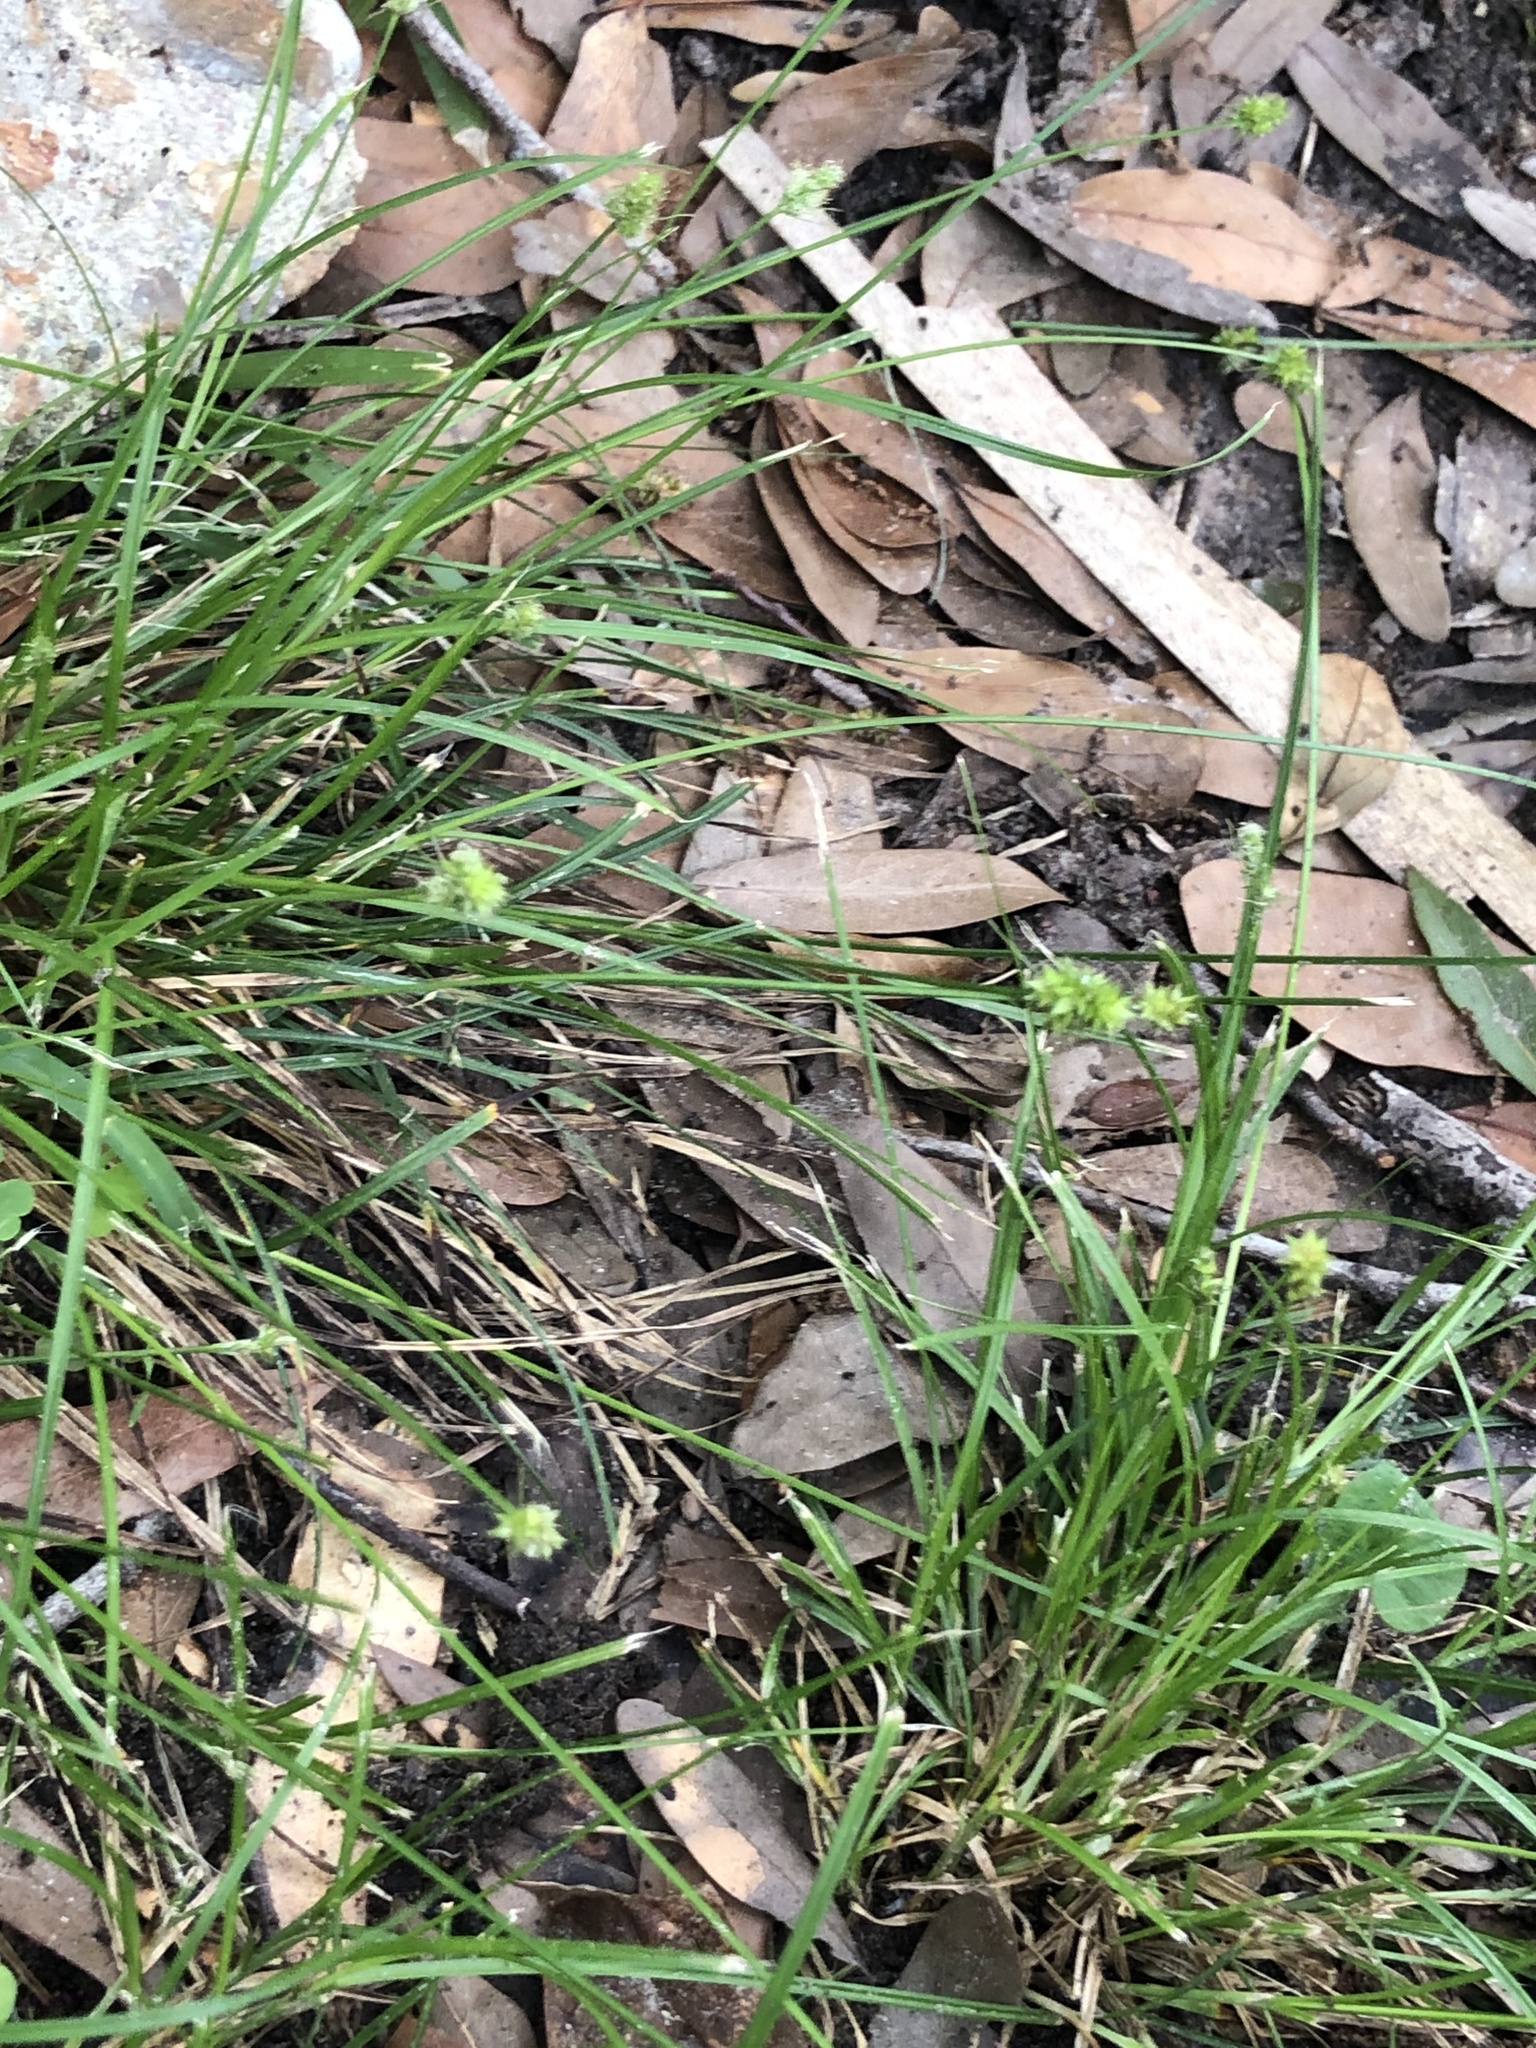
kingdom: Plantae
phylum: Tracheophyta
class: Liliopsida
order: Poales
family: Cyperaceae
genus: Carex
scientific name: Carex leavenworthii
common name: Leavenworth's bracted sedge
